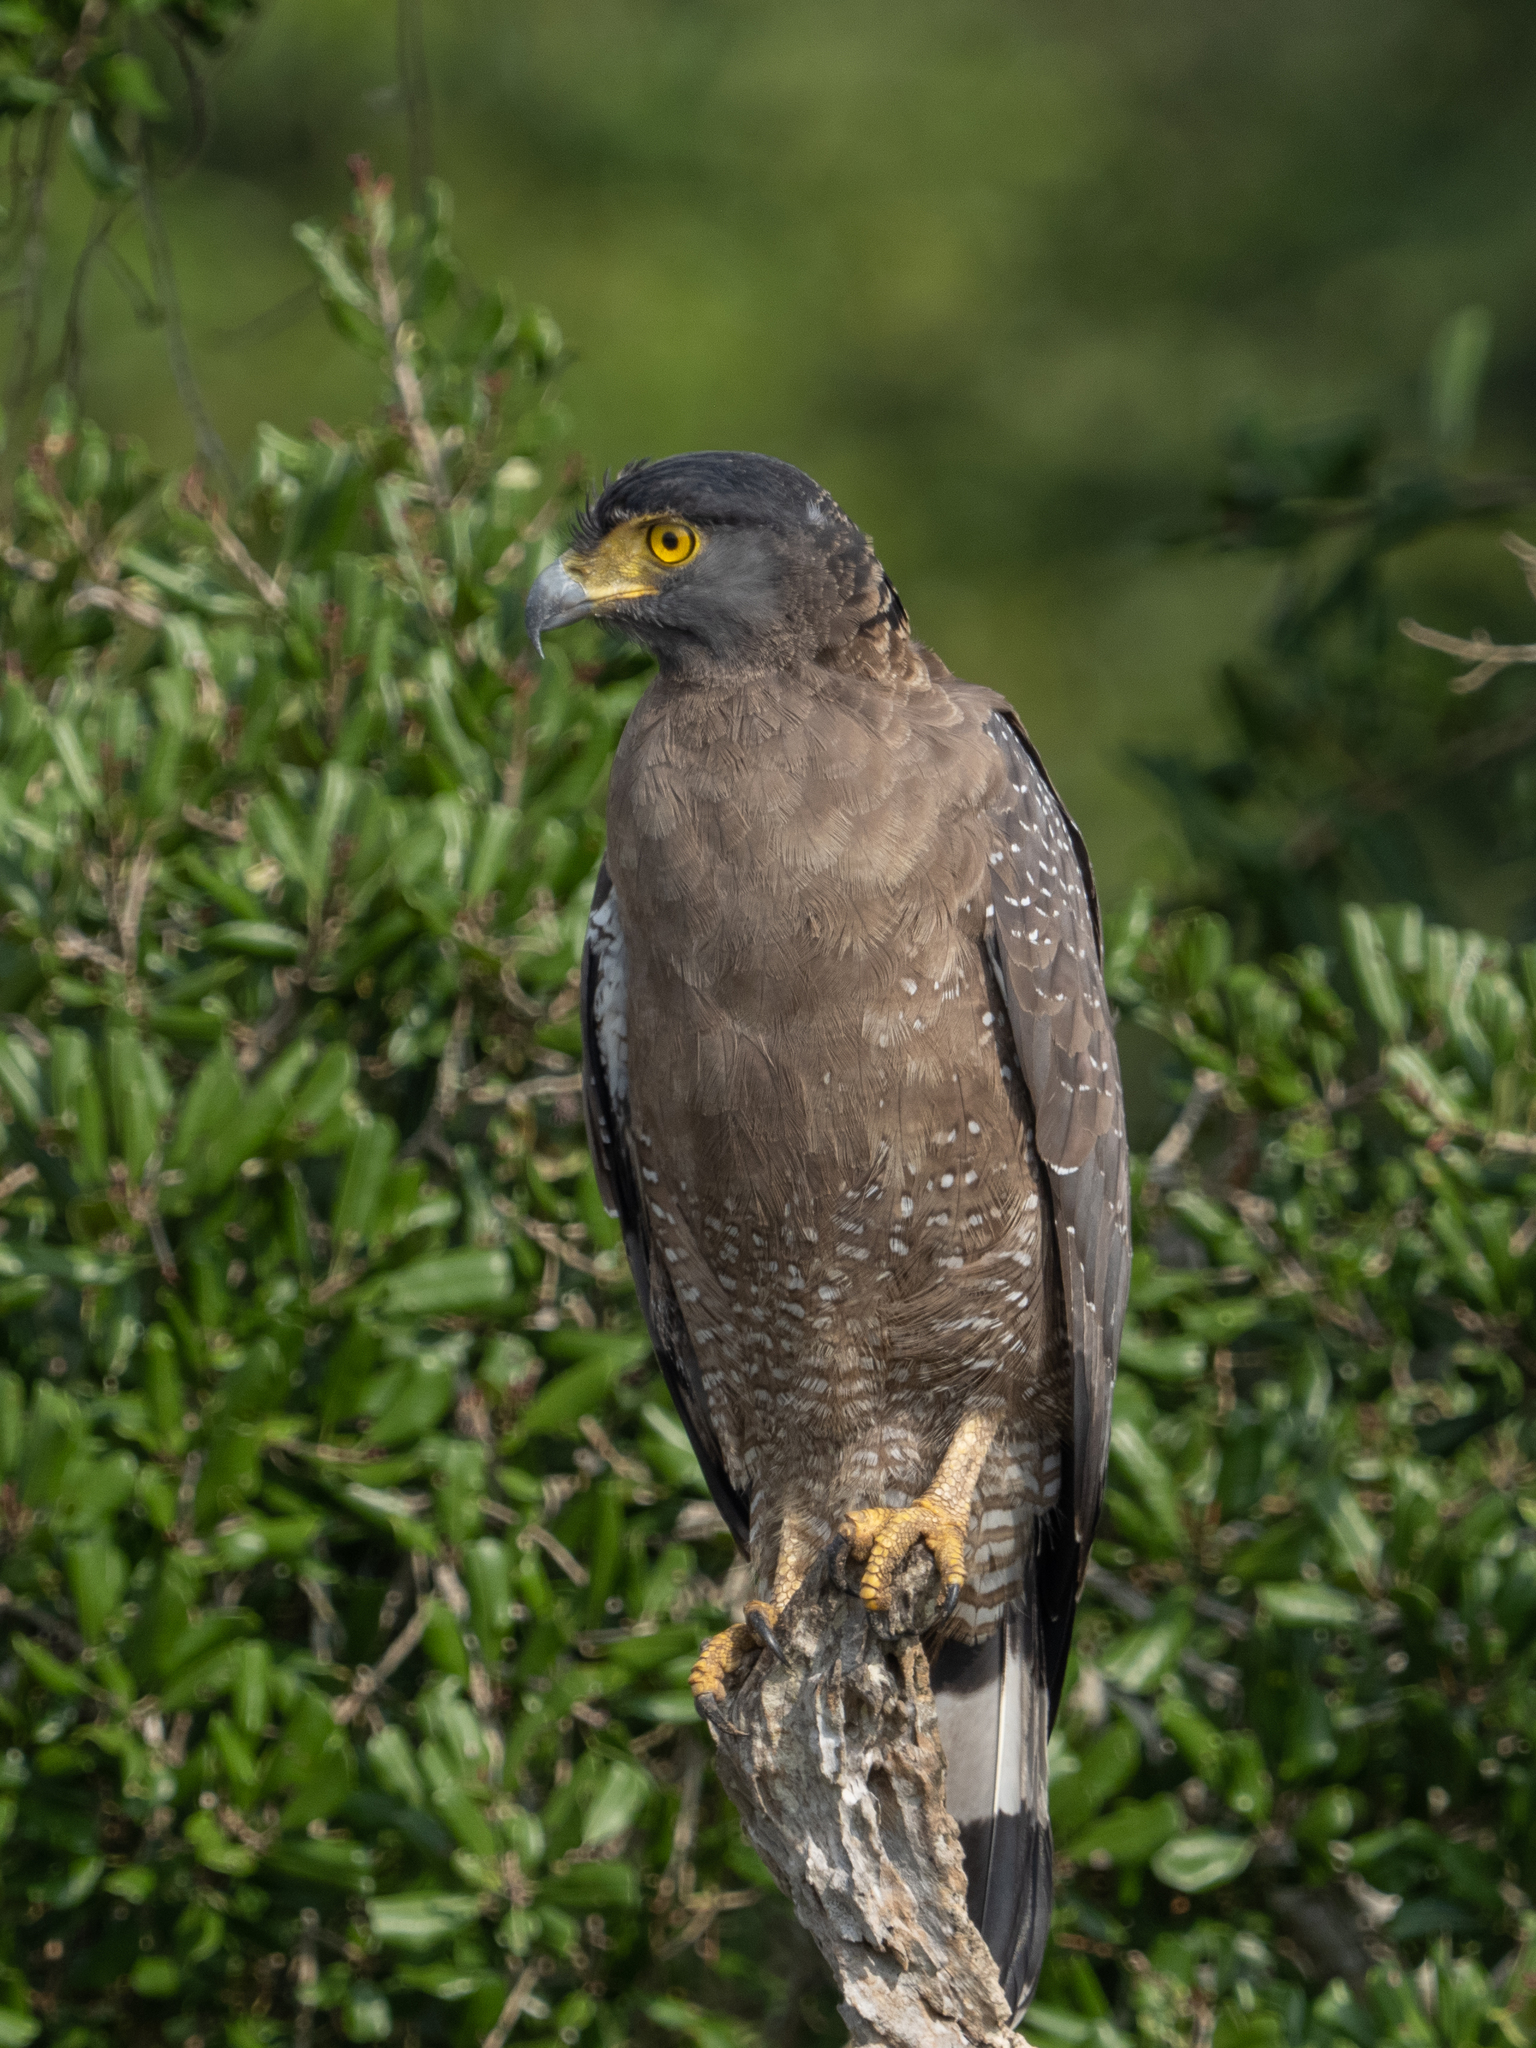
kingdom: Animalia
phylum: Chordata
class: Aves
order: Accipitriformes
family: Accipitridae
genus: Spilornis
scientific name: Spilornis cheela
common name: Crested serpent eagle
